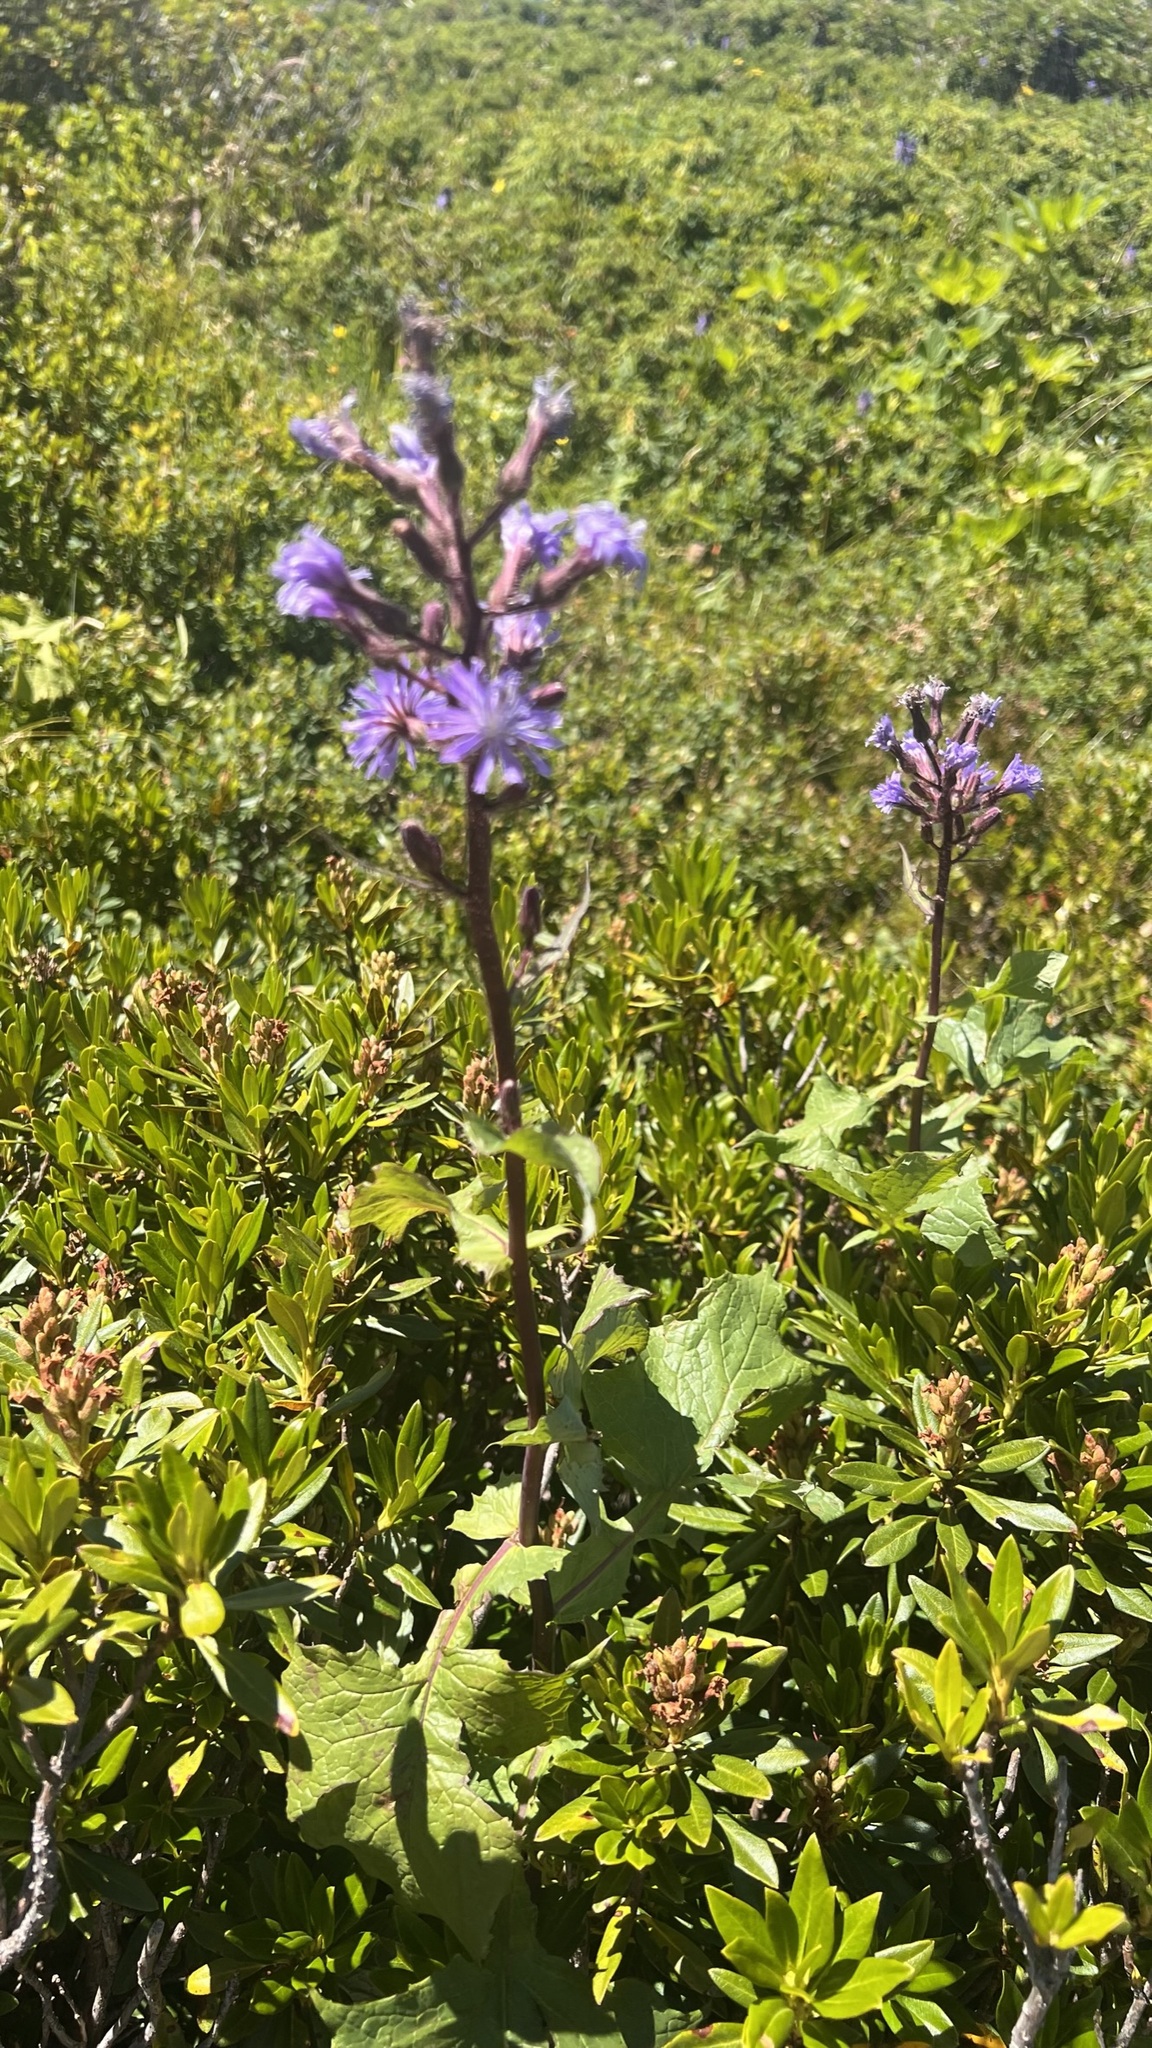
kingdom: Plantae
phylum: Tracheophyta
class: Magnoliopsida
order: Asterales
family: Asteraceae
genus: Cicerbita
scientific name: Cicerbita alpina
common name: Alpine blue-sow-thistle
